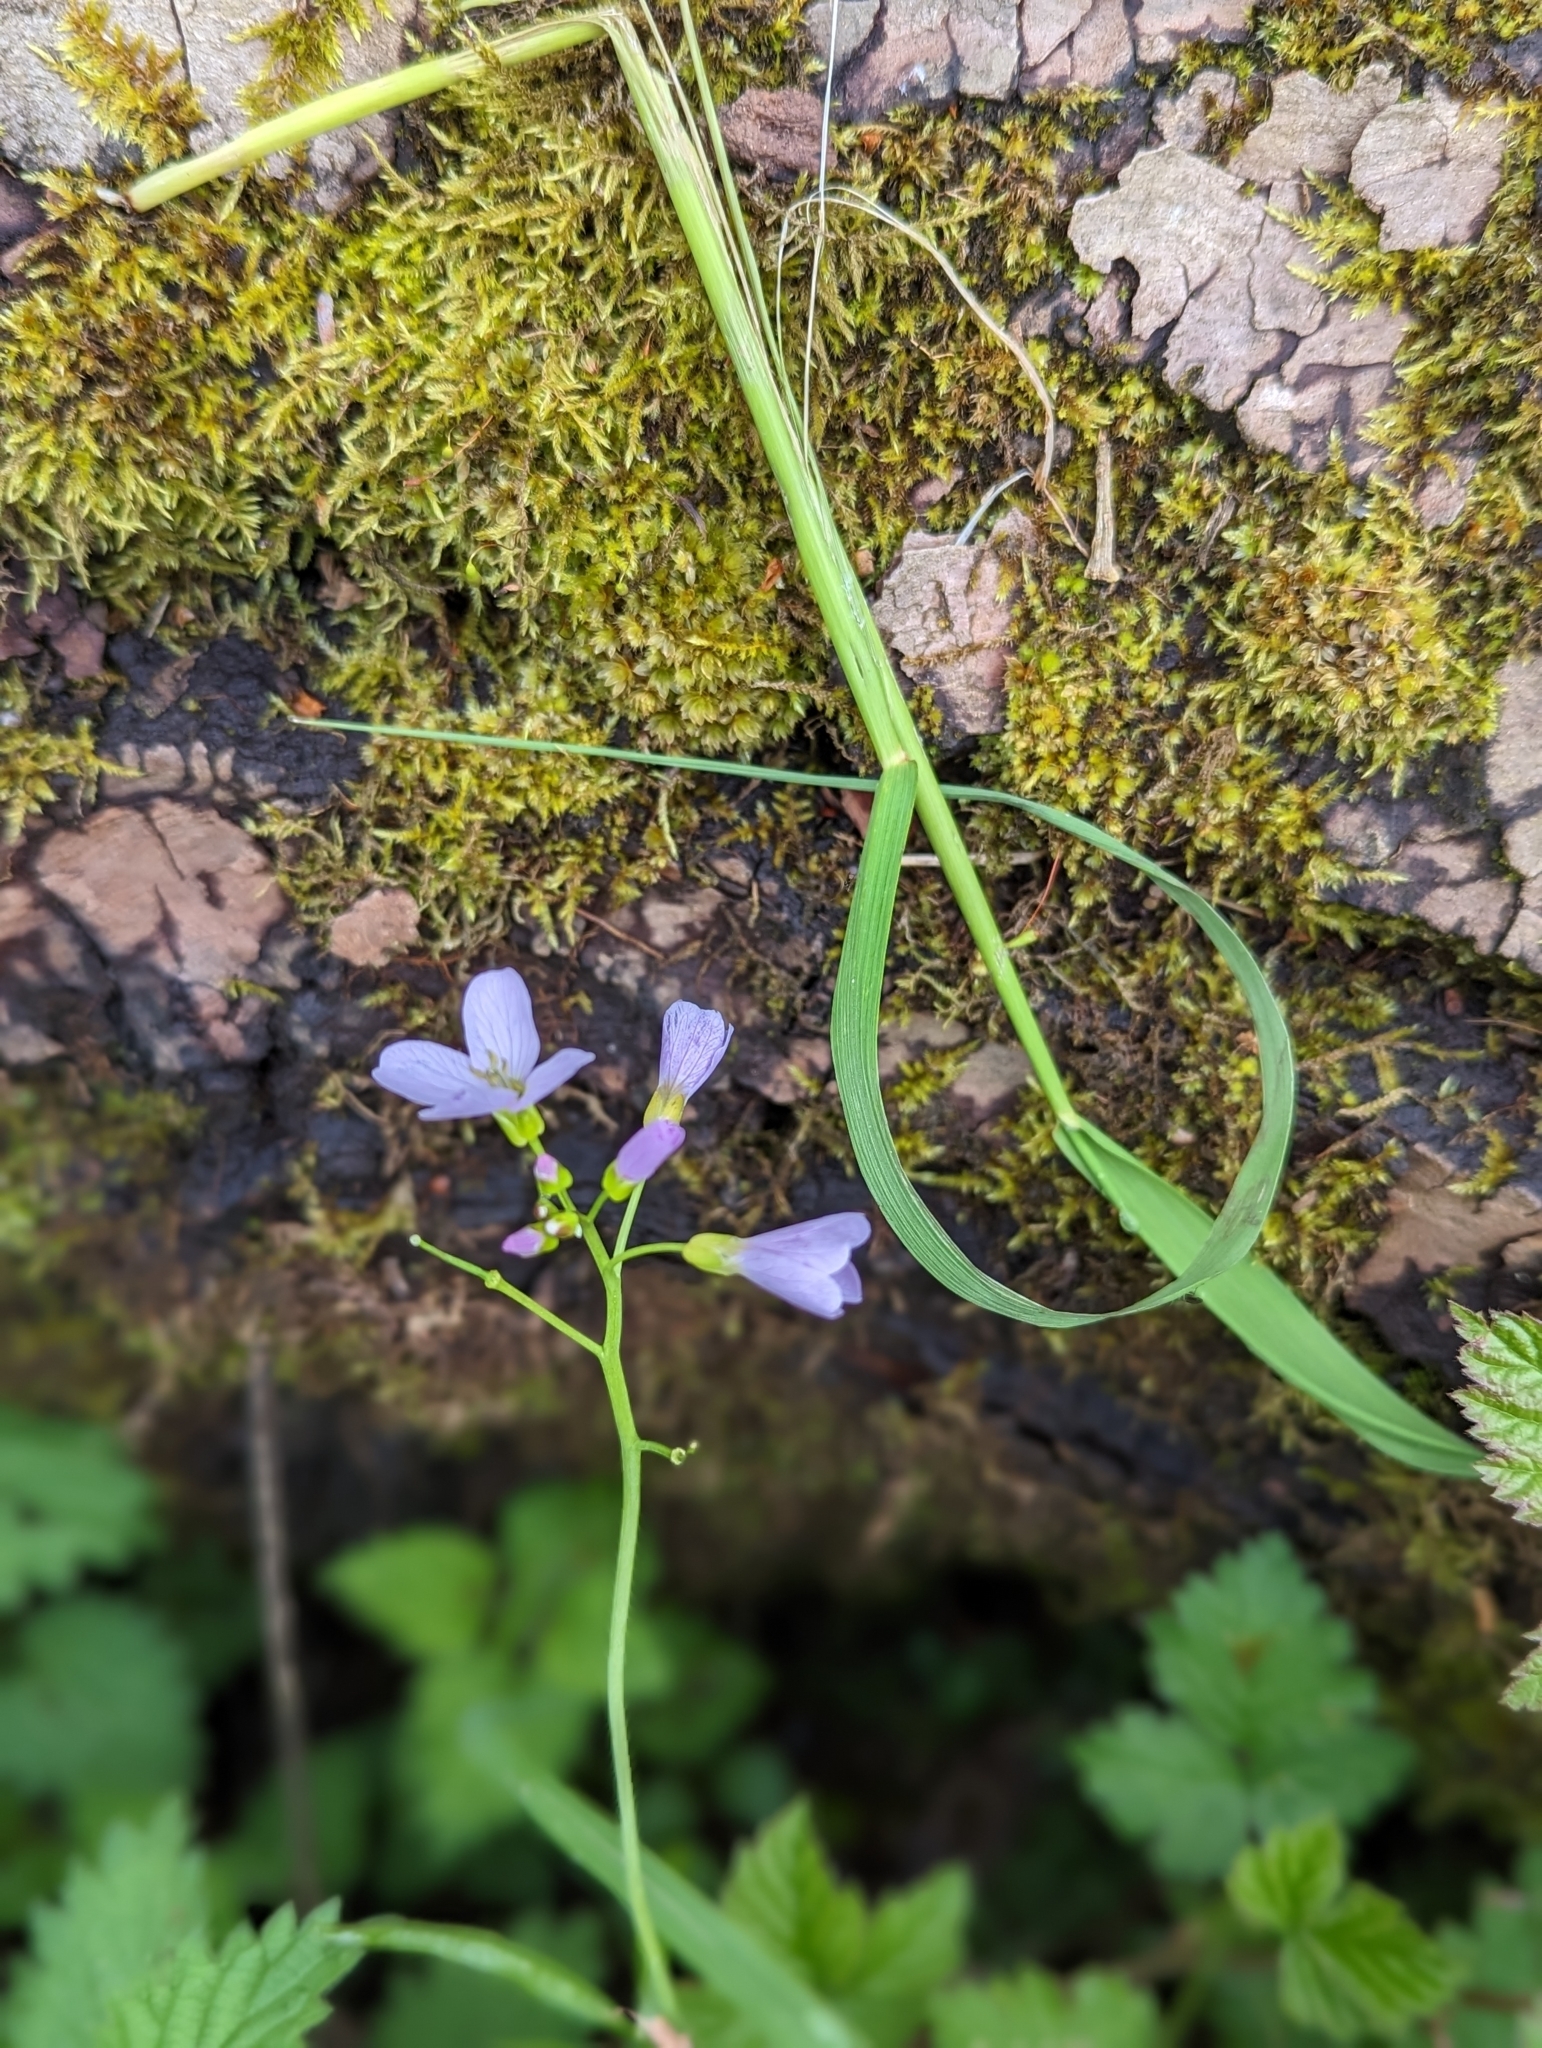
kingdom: Plantae
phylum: Tracheophyta
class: Magnoliopsida
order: Brassicales
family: Brassicaceae
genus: Cardamine
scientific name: Cardamine pratensis
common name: Cuckoo flower
